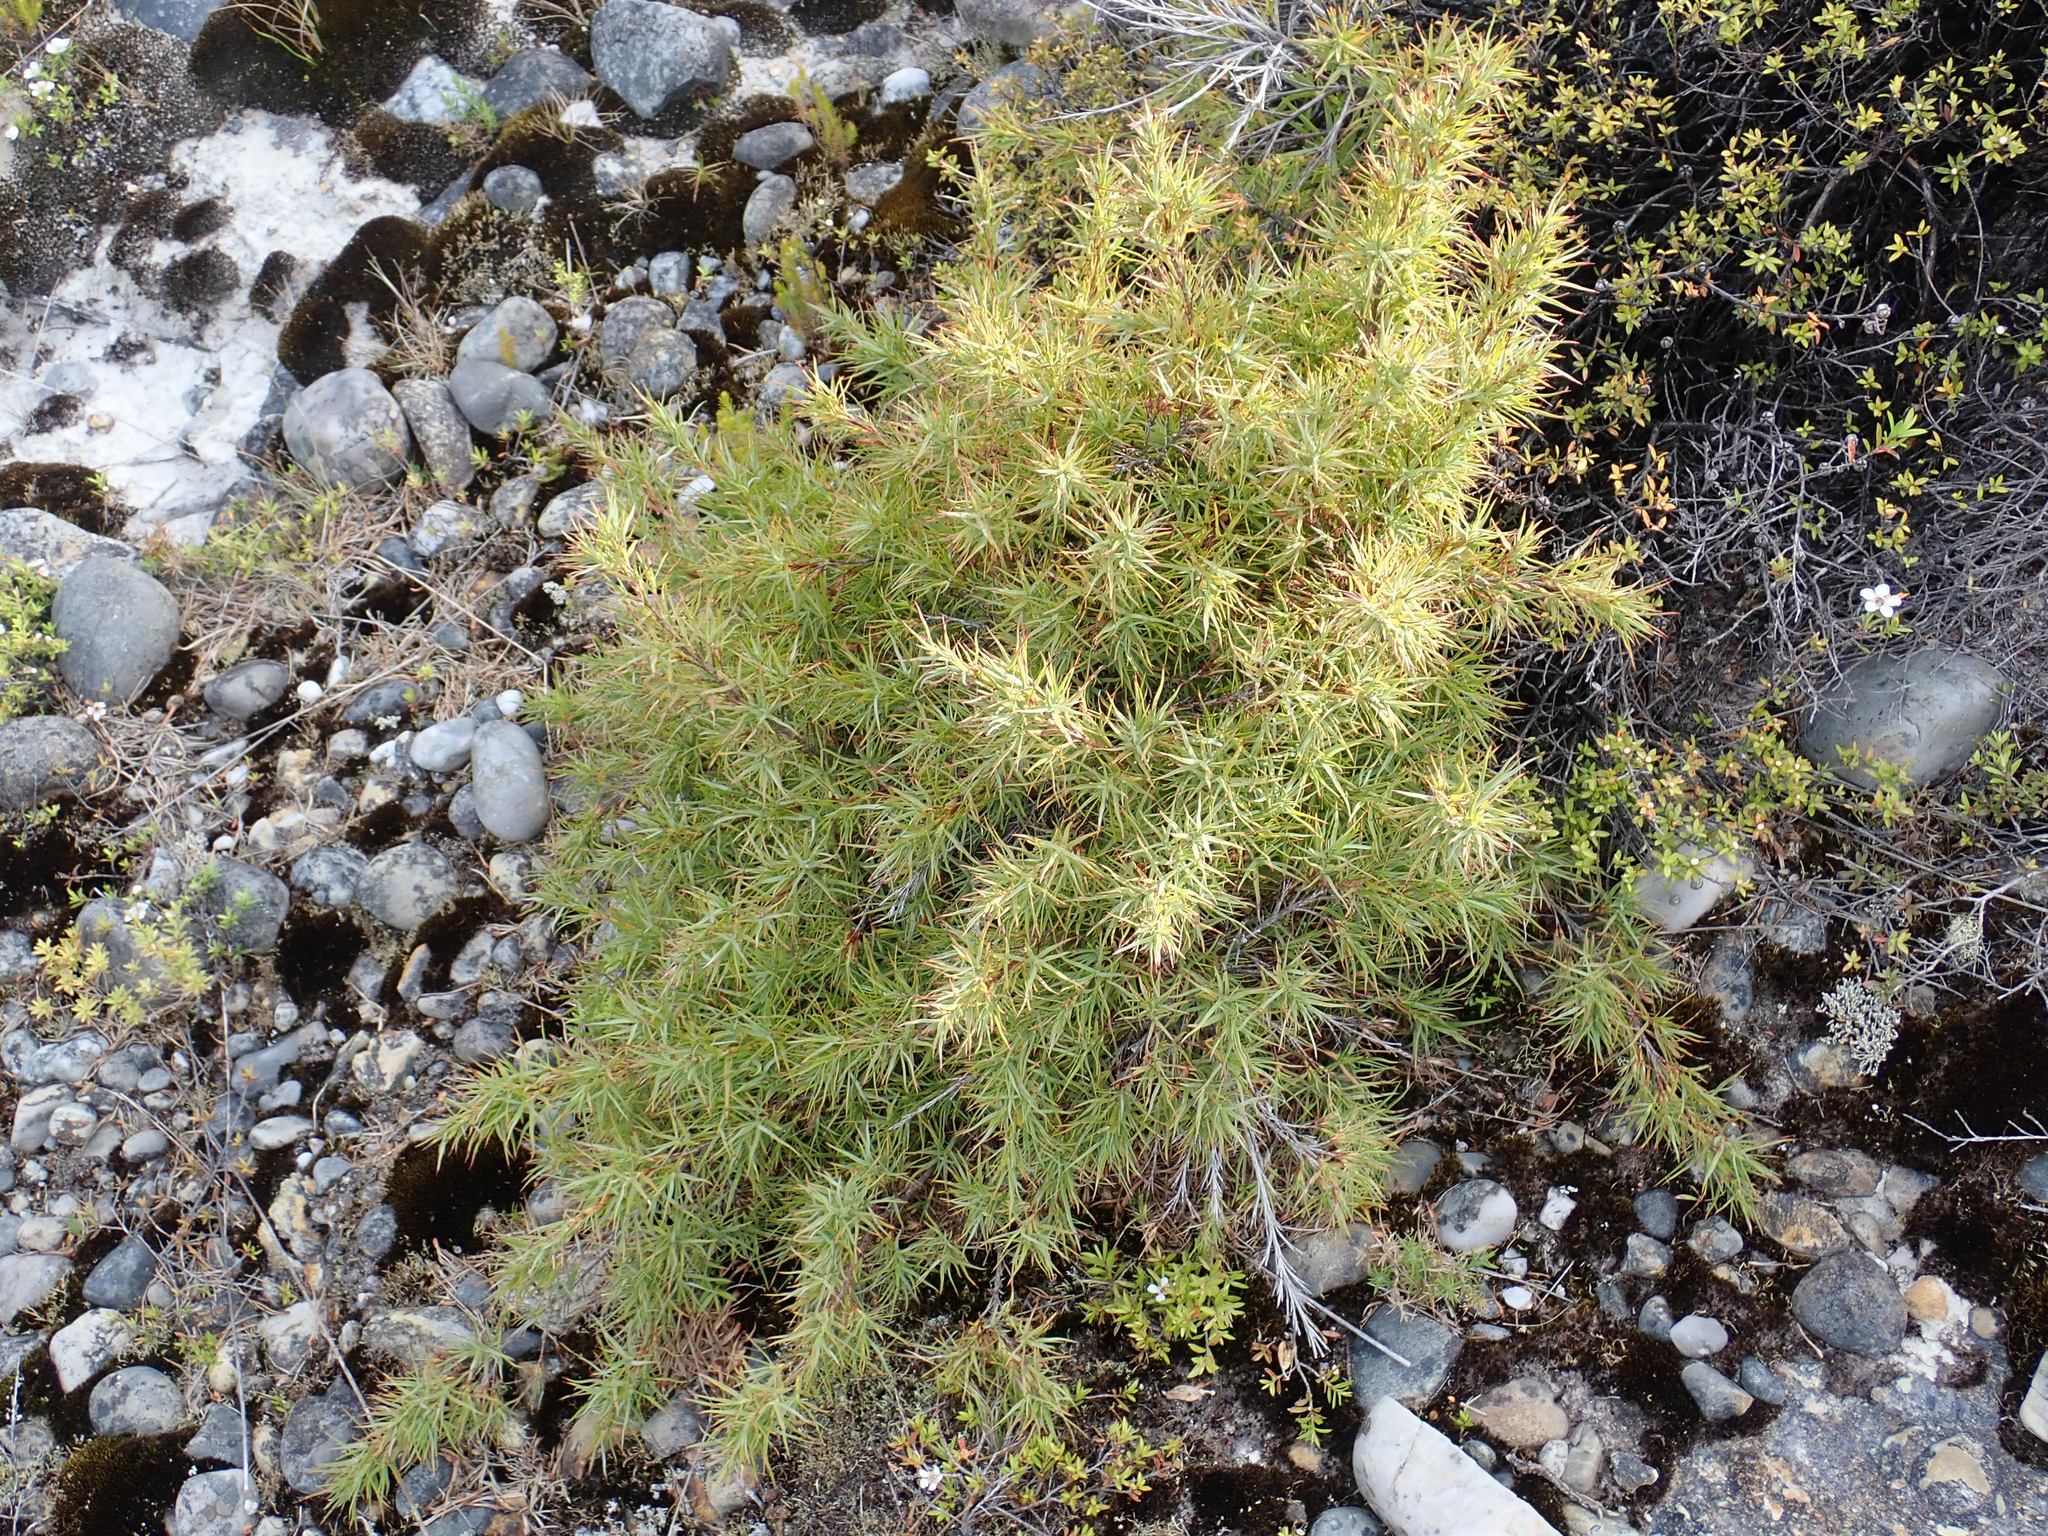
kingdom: Plantae
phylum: Tracheophyta
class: Magnoliopsida
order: Ericales
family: Ericaceae
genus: Dracophyllum
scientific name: Dracophyllum trimorphum
